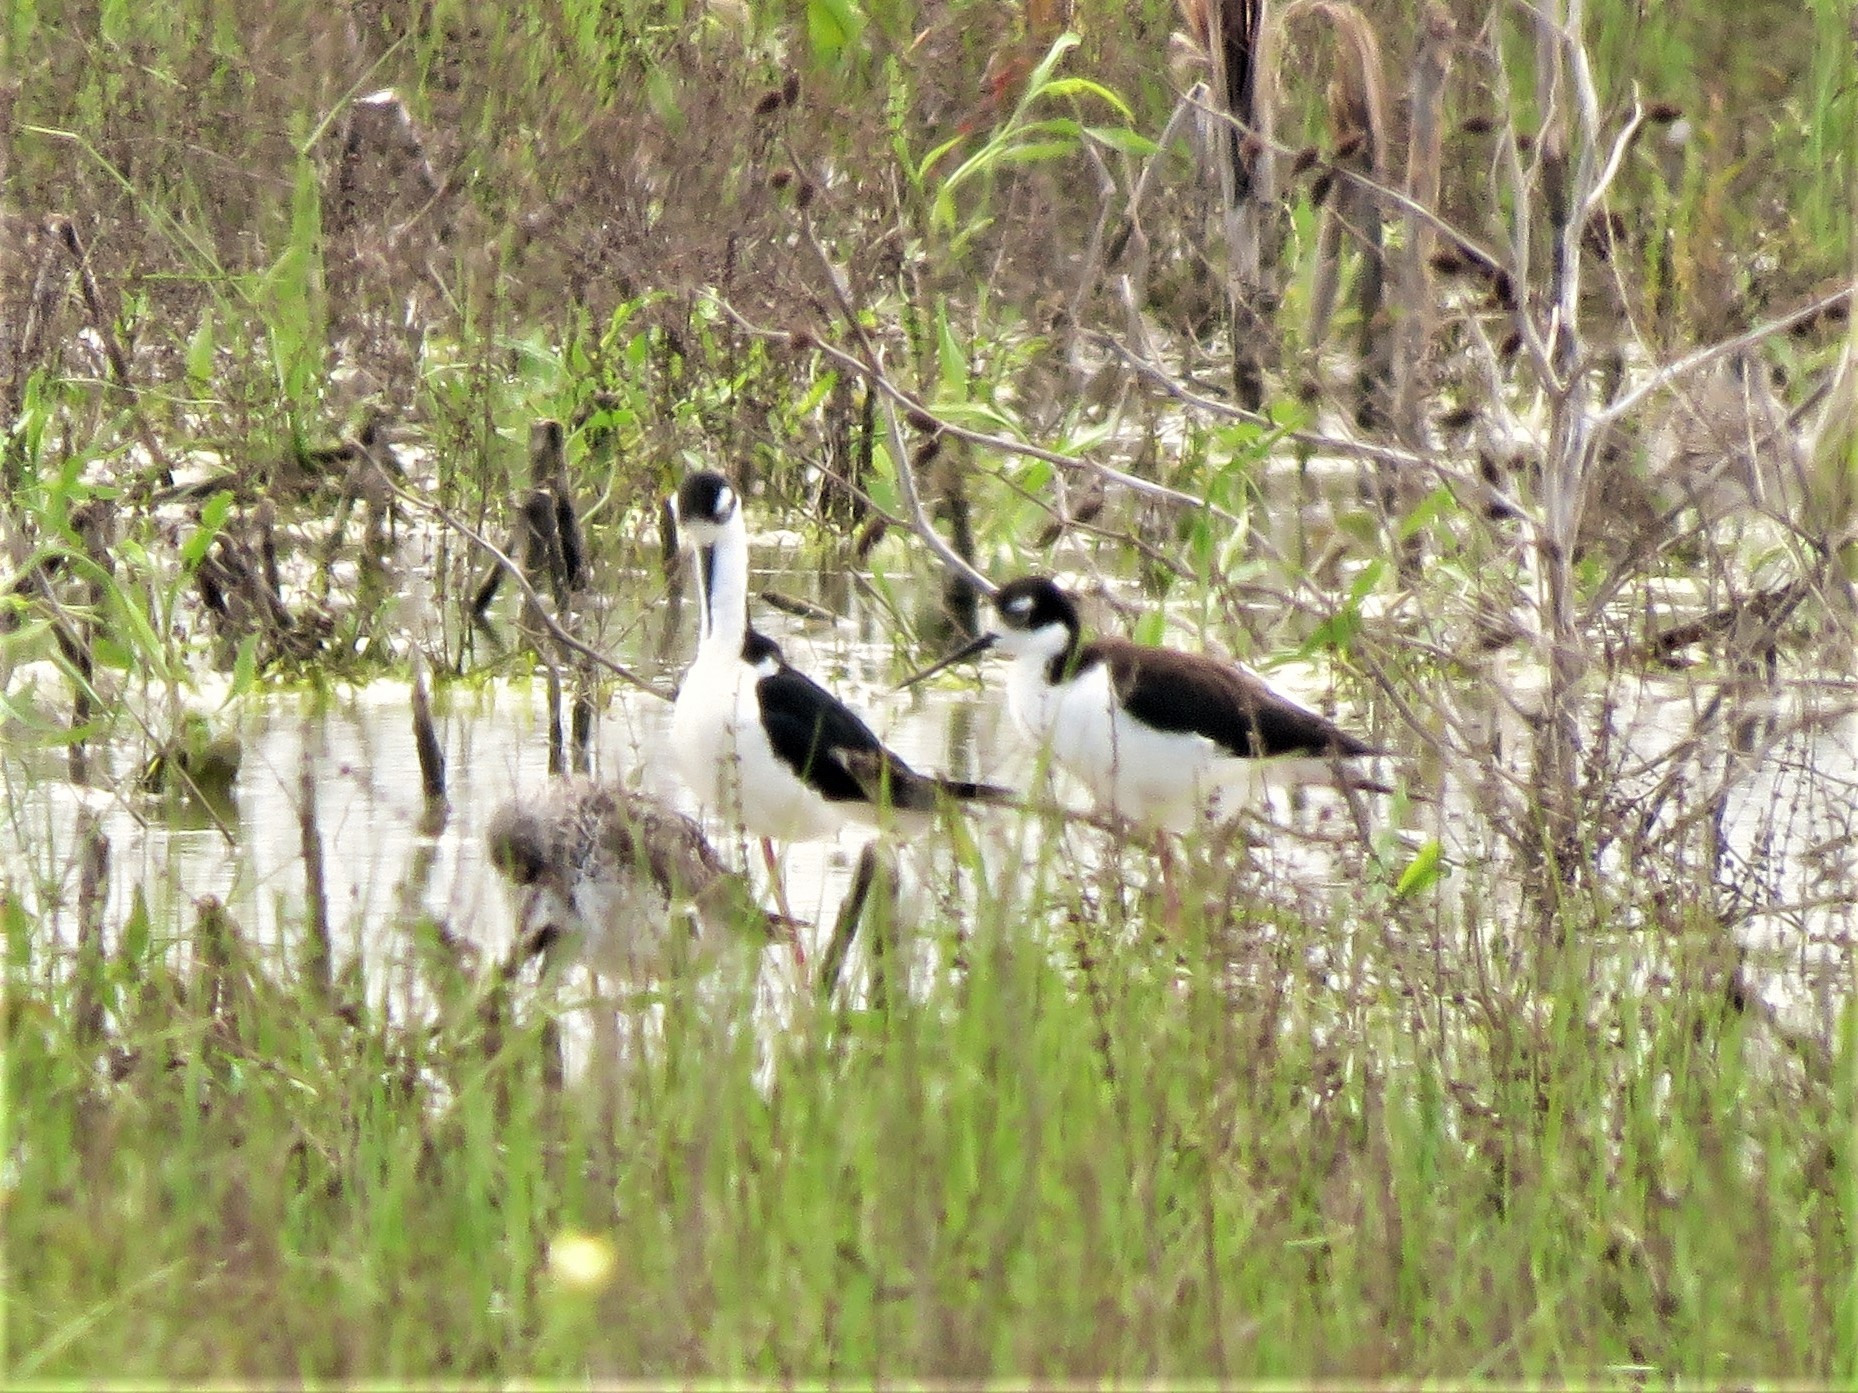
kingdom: Animalia
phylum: Chordata
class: Aves
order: Charadriiformes
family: Recurvirostridae
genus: Himantopus
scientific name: Himantopus mexicanus
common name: Black-necked stilt
